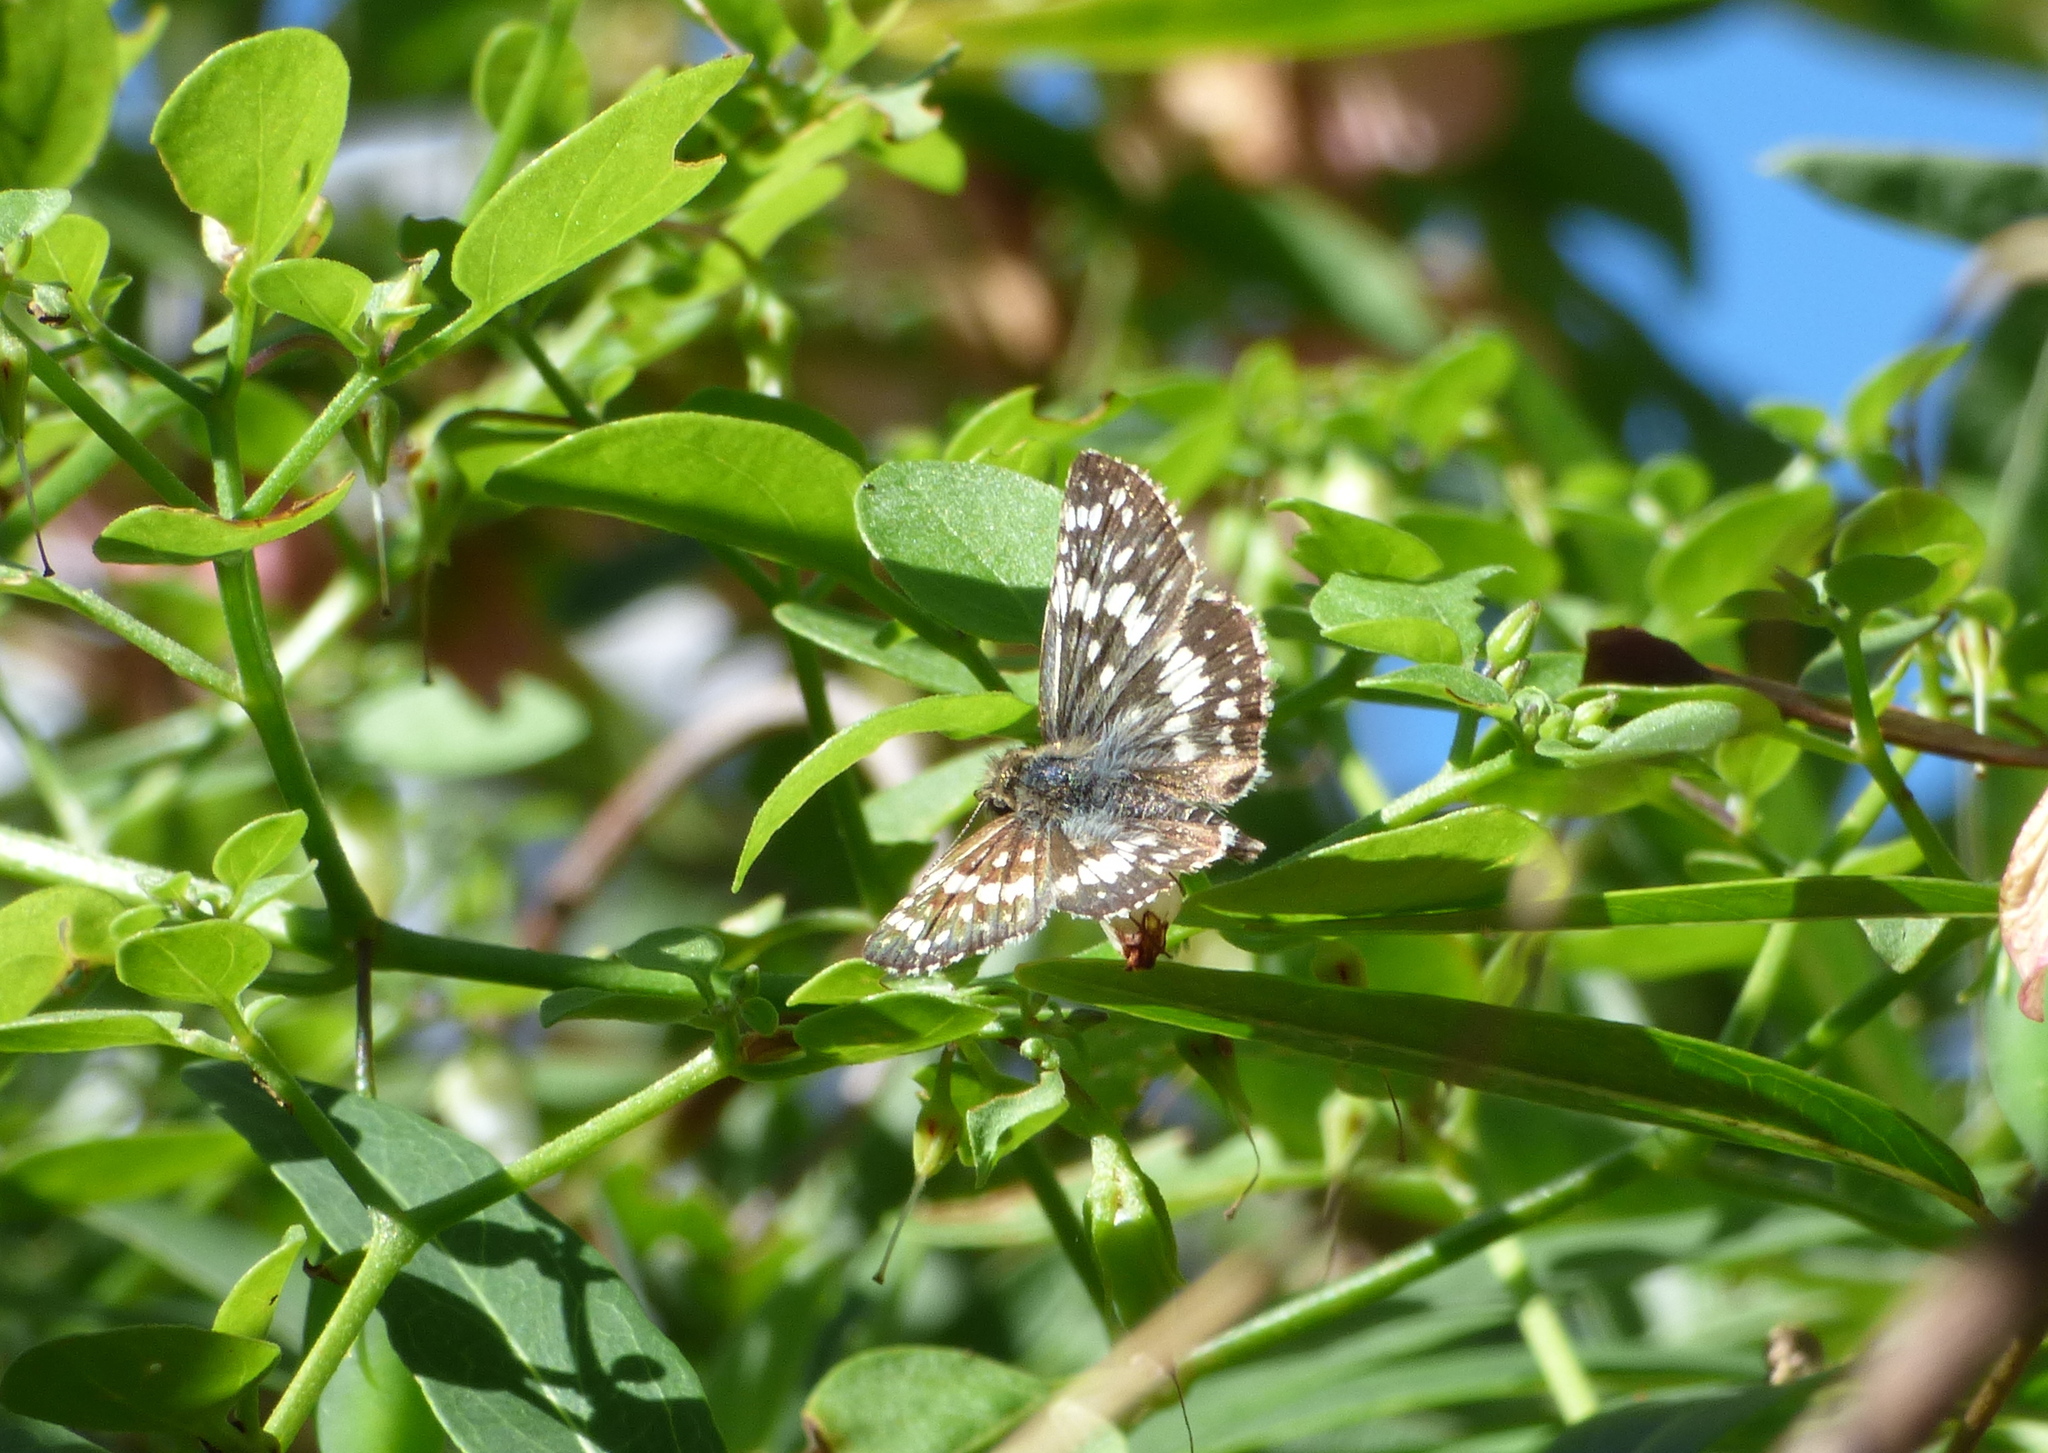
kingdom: Animalia
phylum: Arthropoda
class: Insecta
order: Lepidoptera
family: Hesperiidae
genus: Burnsius
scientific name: Burnsius orcynoides
